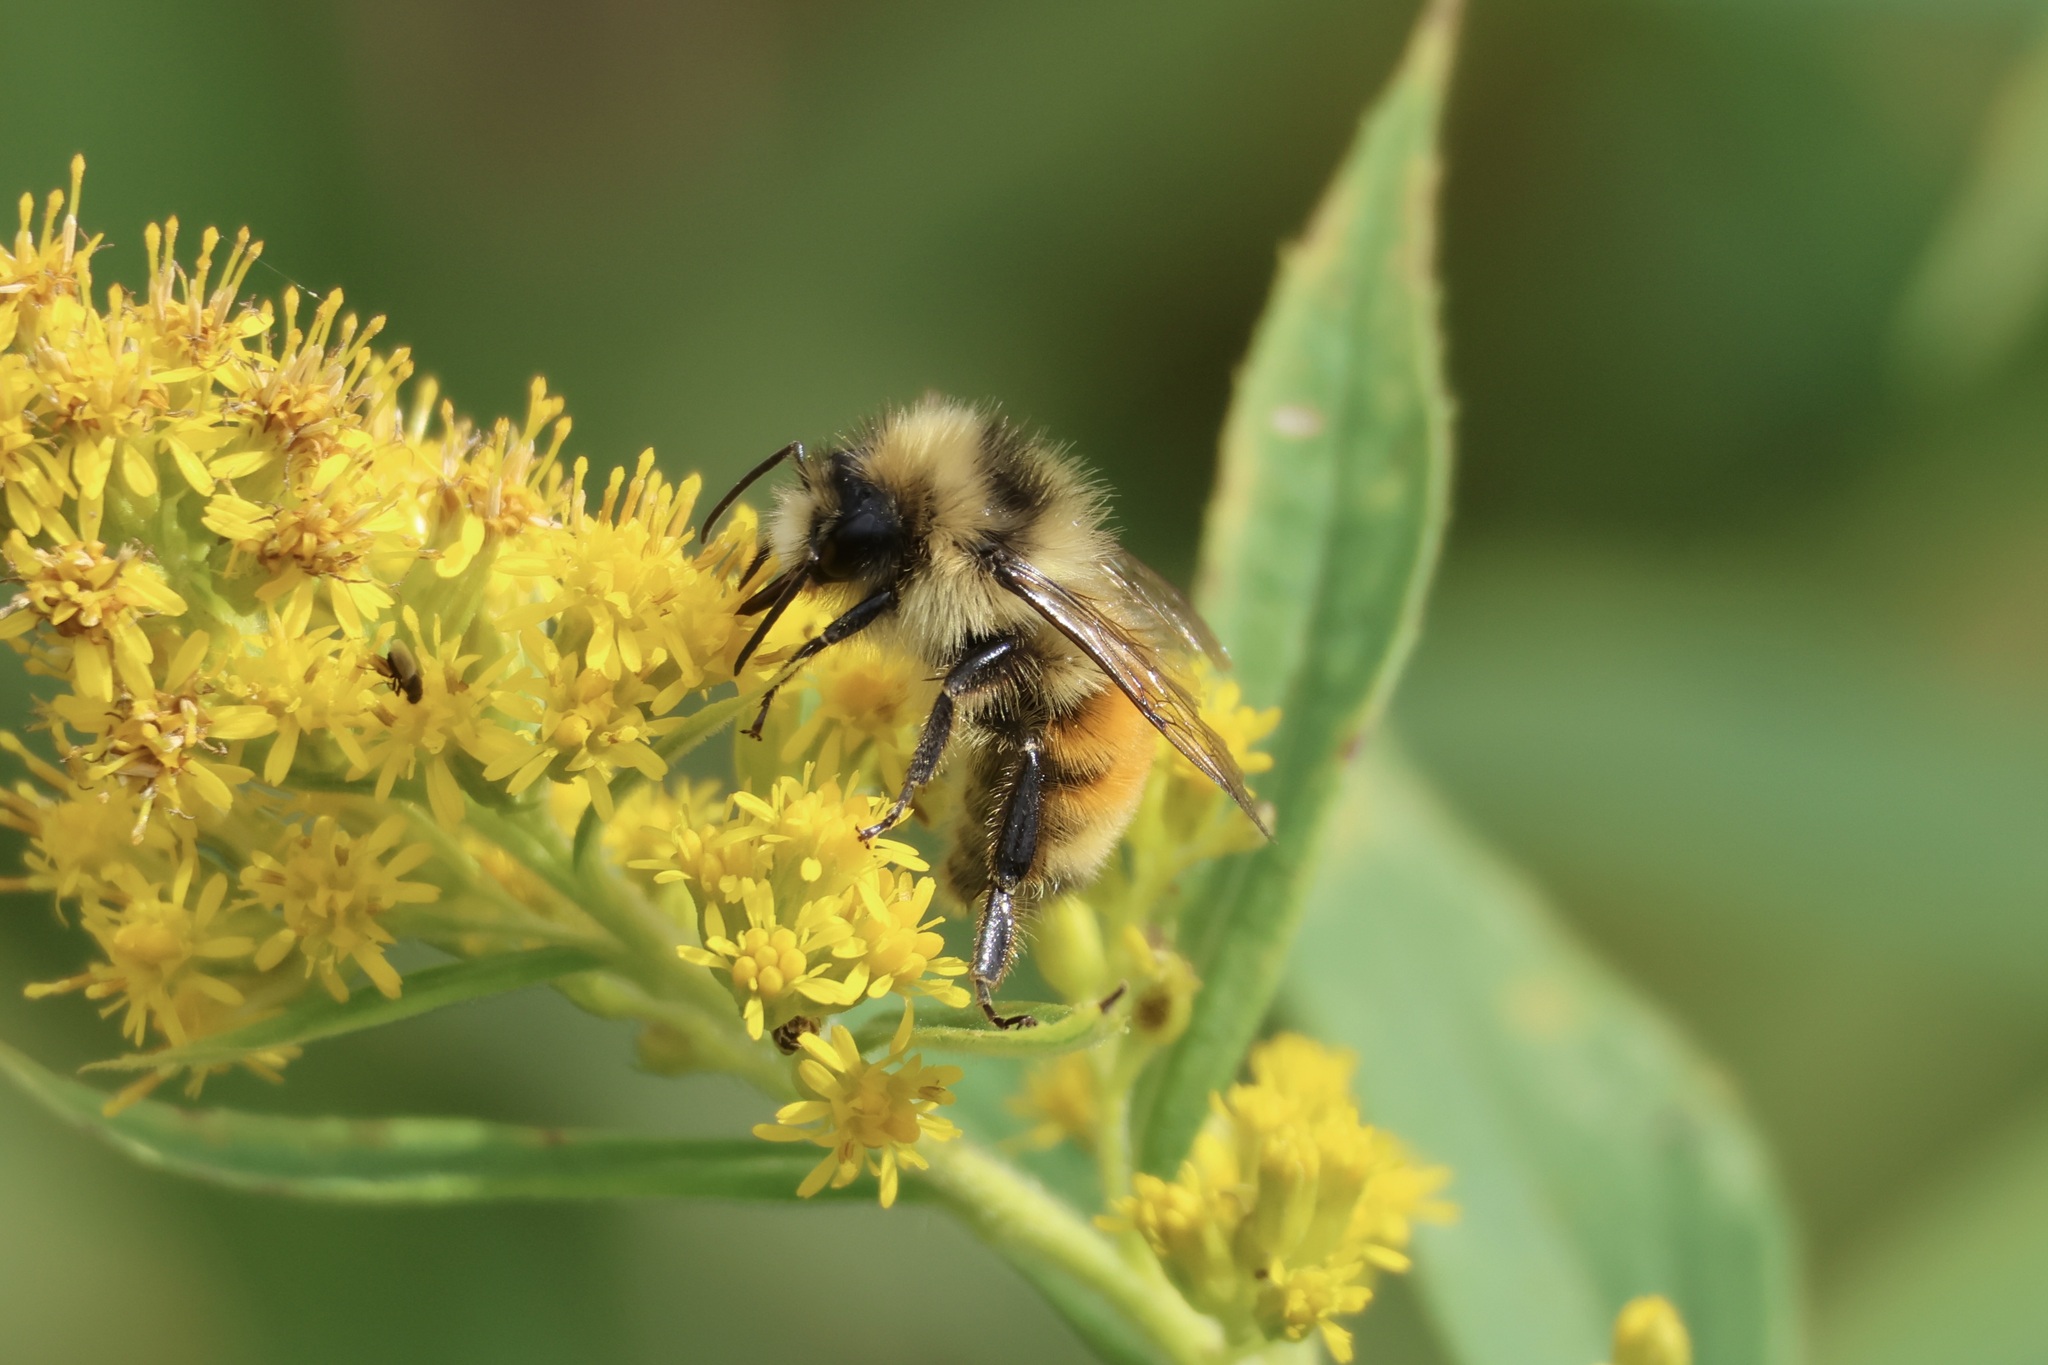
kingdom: Animalia
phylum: Arthropoda
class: Insecta
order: Hymenoptera
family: Apidae
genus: Bombus
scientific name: Bombus ternarius
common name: Tri-colored bumble bee
